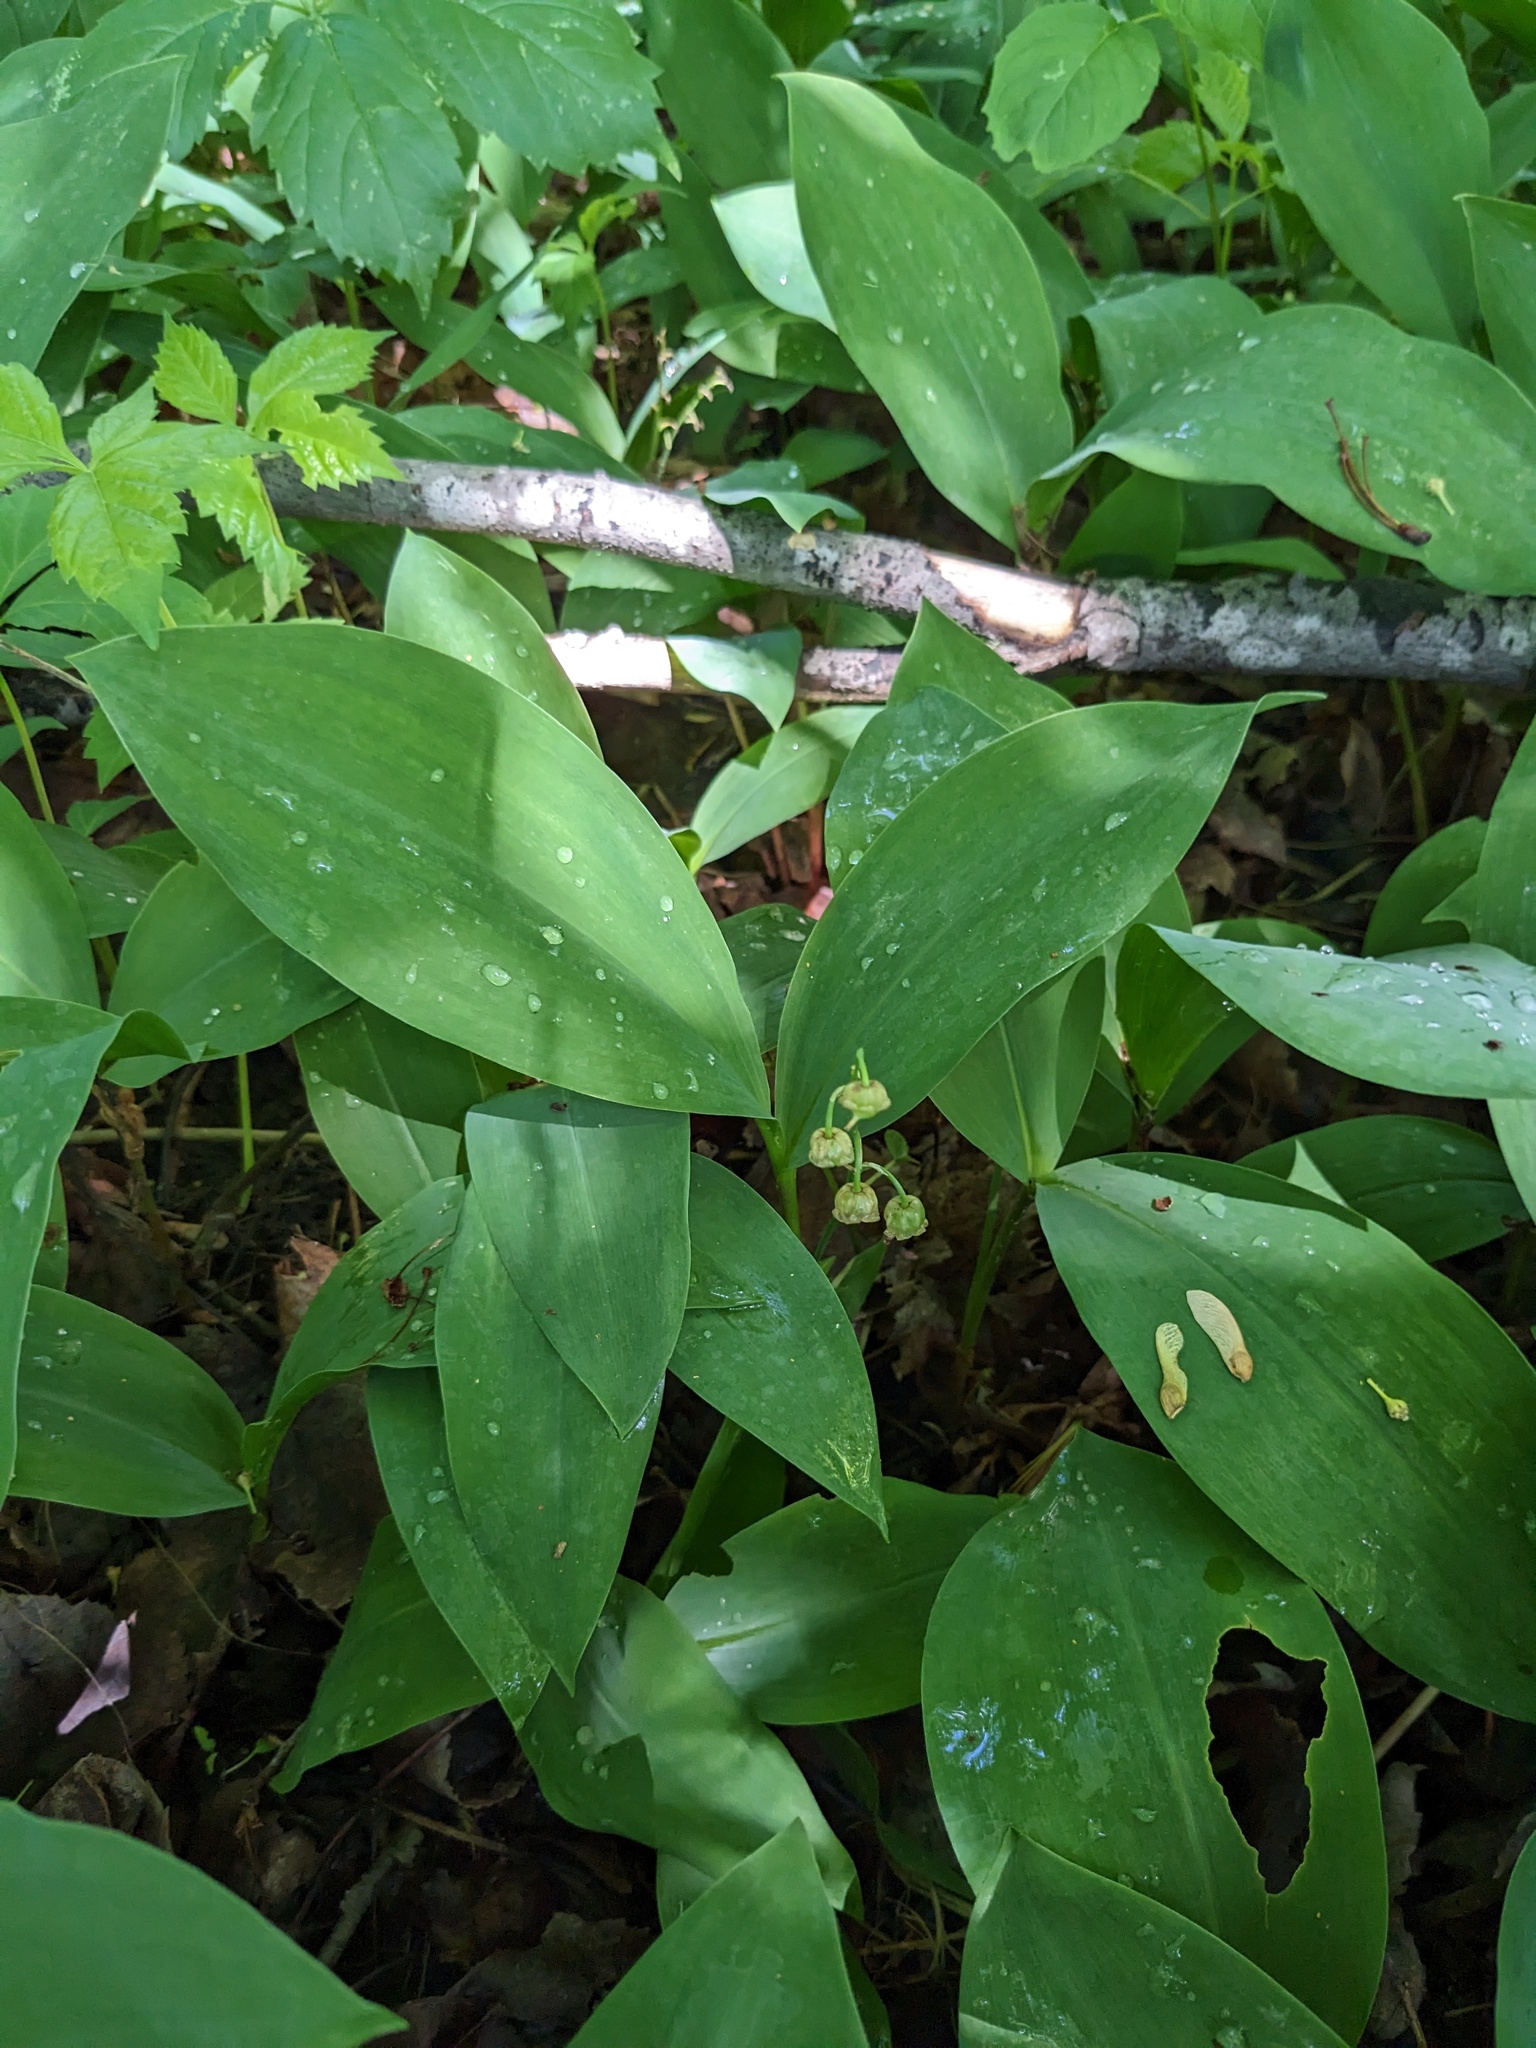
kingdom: Plantae
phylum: Tracheophyta
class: Liliopsida
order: Asparagales
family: Asparagaceae
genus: Convallaria
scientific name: Convallaria majalis
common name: Lily-of-the-valley
